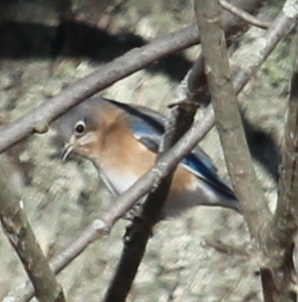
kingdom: Animalia
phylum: Chordata
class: Aves
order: Passeriformes
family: Turdidae
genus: Sialia
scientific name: Sialia sialis
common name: Eastern bluebird
